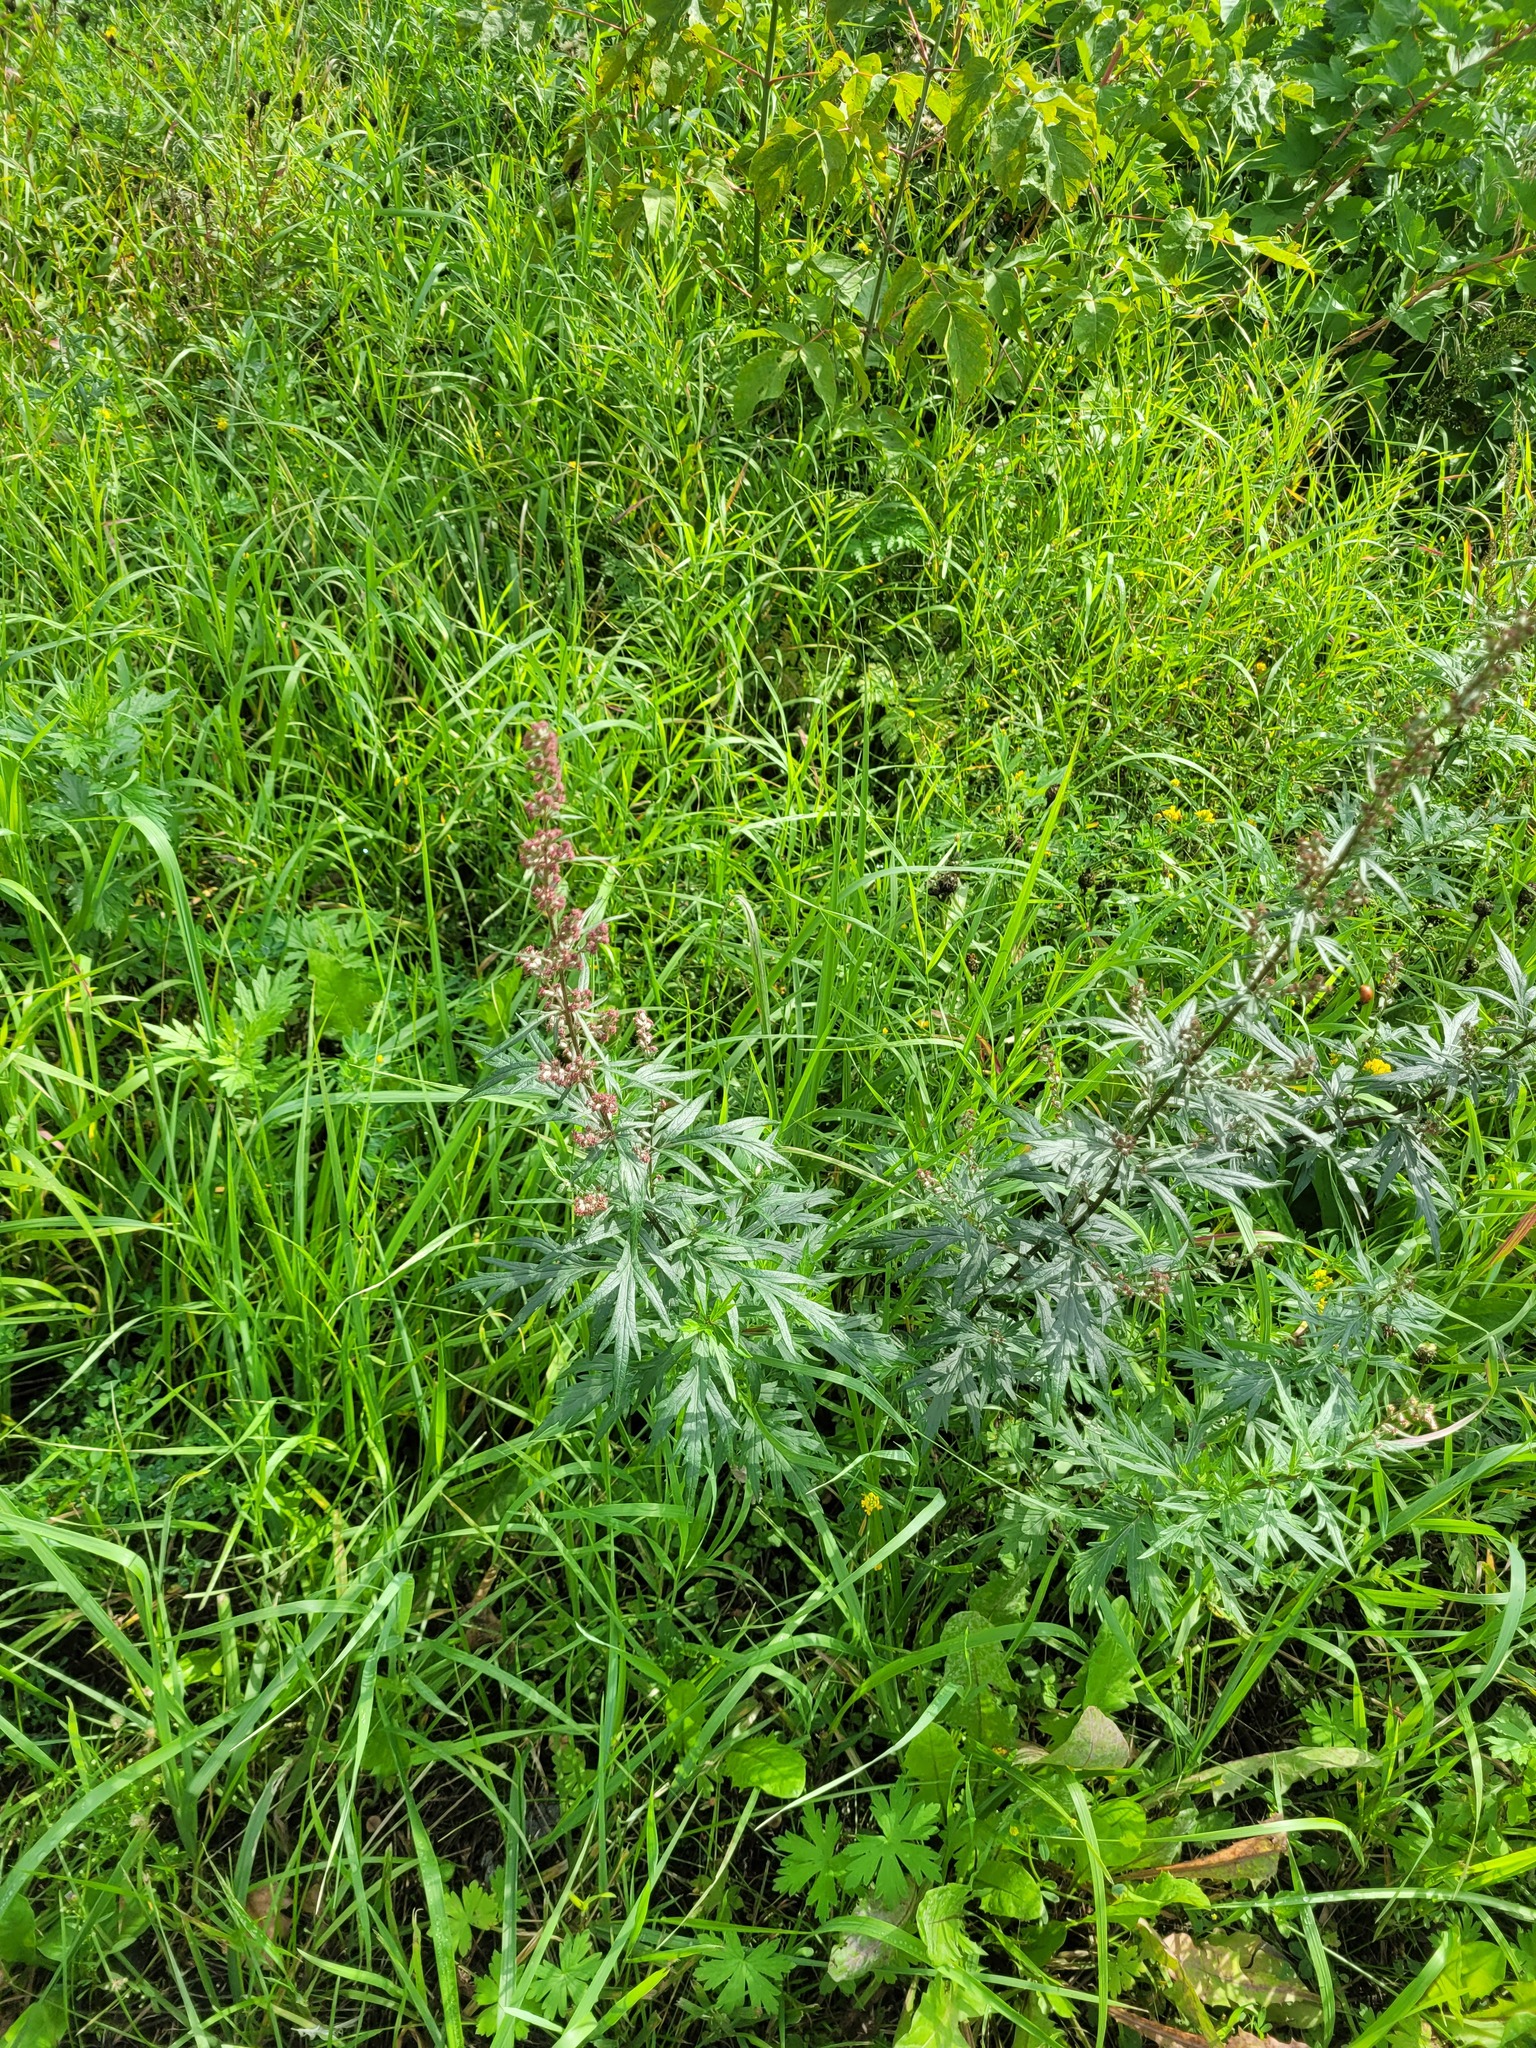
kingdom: Plantae
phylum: Tracheophyta
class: Magnoliopsida
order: Asterales
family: Asteraceae
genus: Artemisia
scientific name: Artemisia vulgaris
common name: Mugwort
